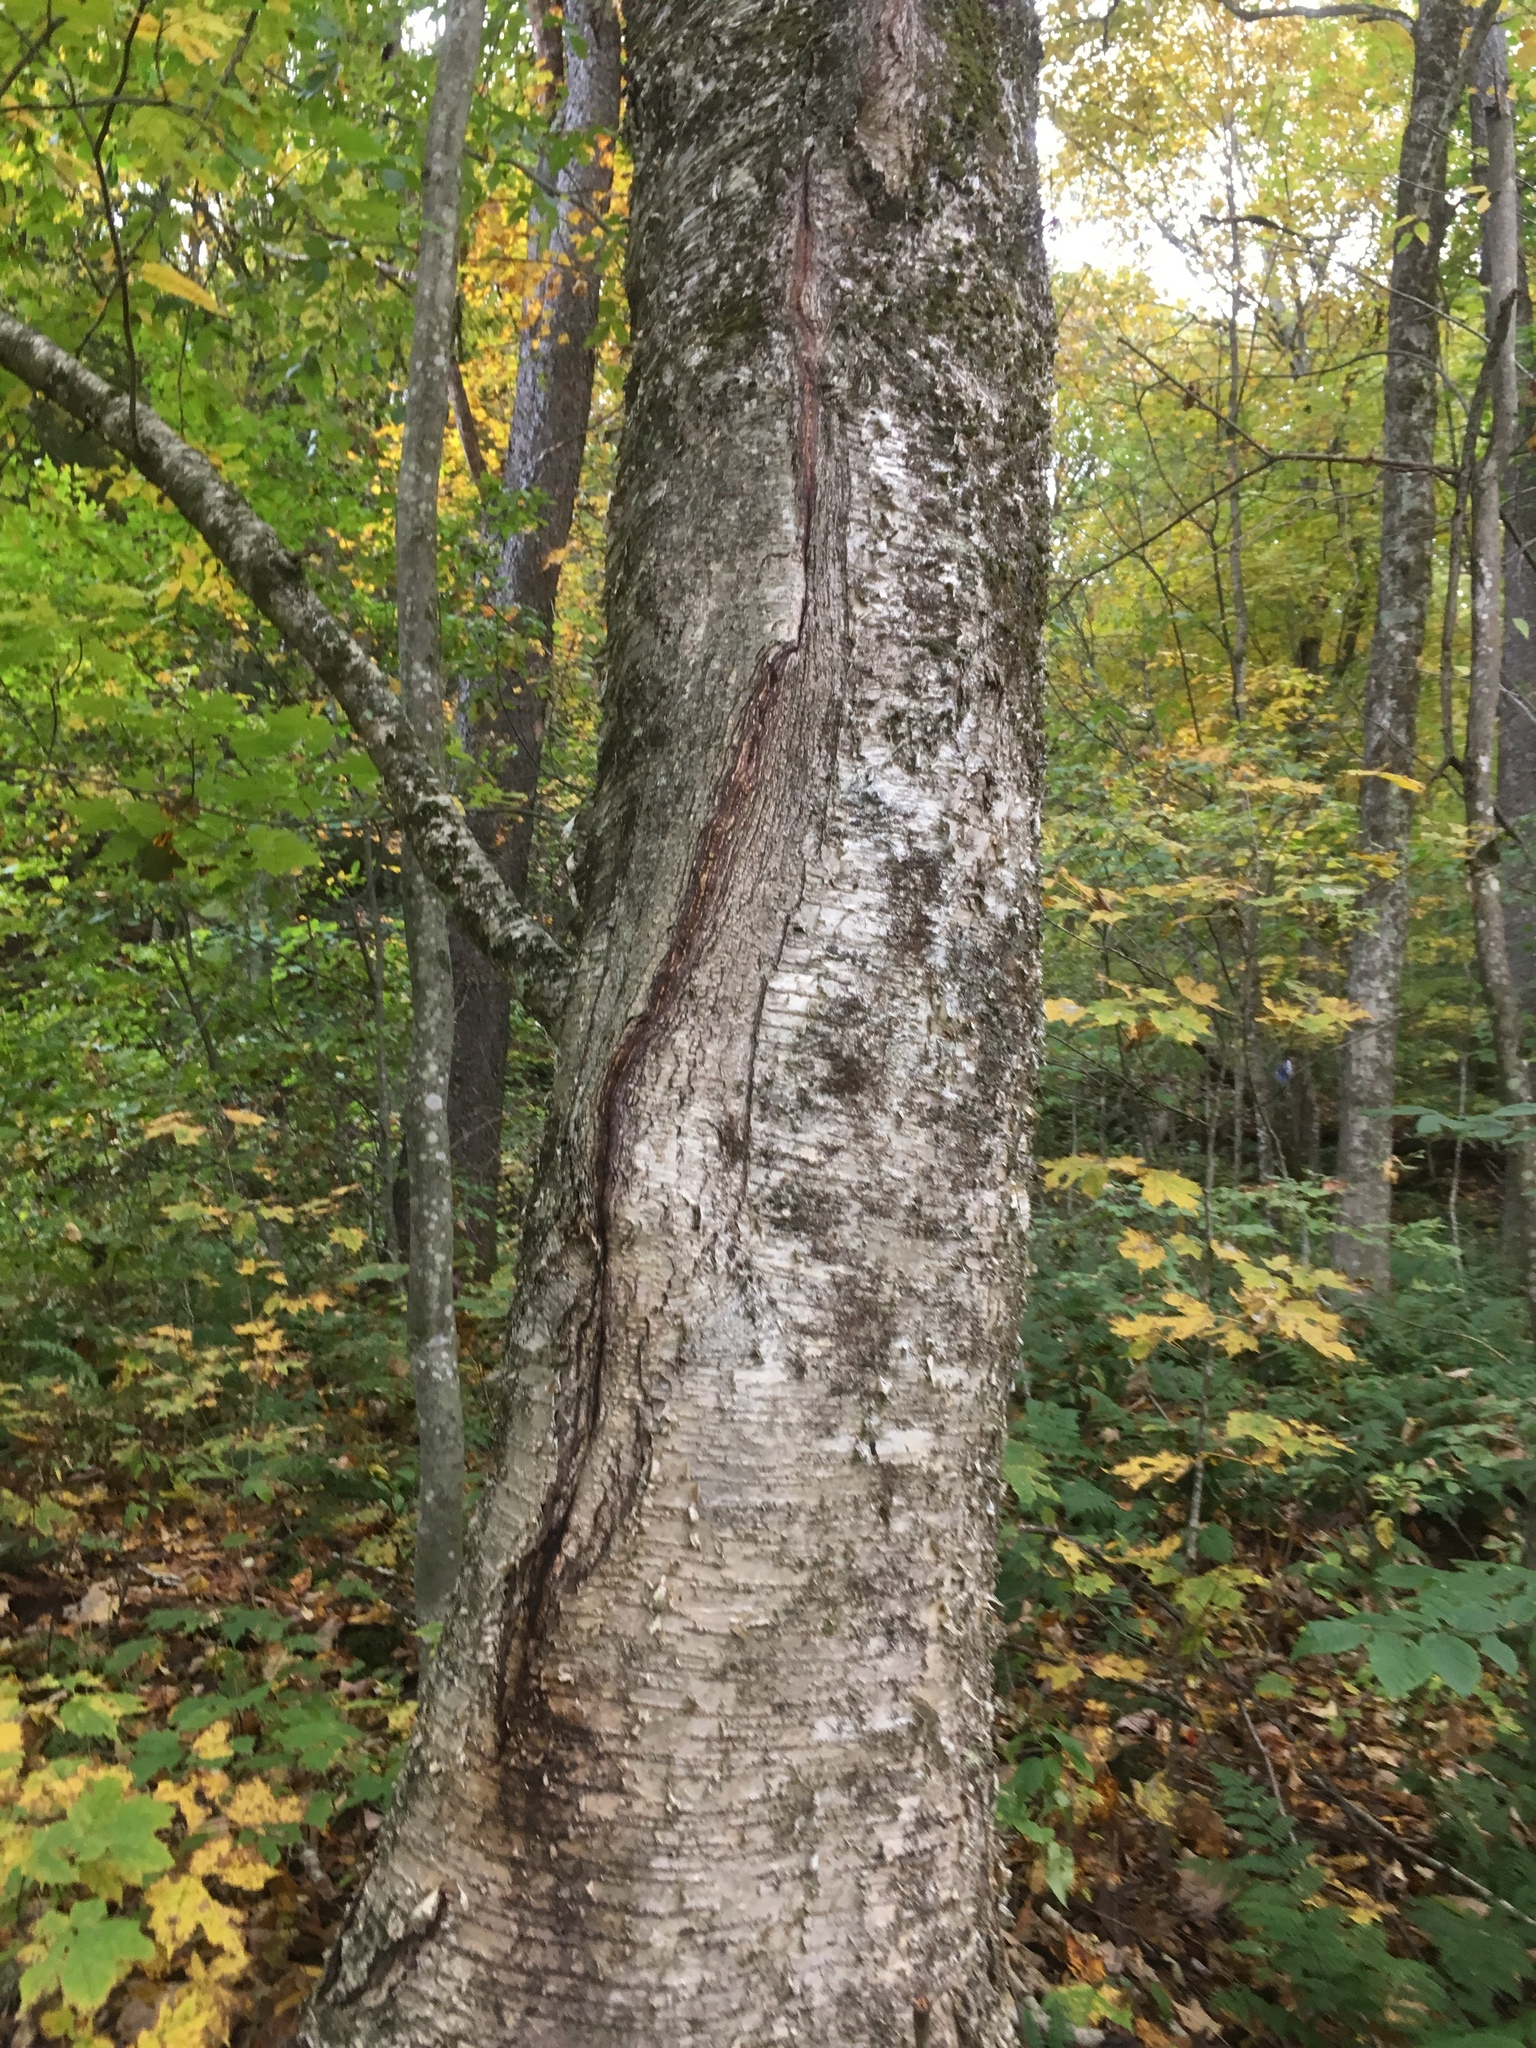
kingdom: Plantae
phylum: Tracheophyta
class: Magnoliopsida
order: Fagales
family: Betulaceae
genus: Betula
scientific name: Betula alleghaniensis
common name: Yellow birch
